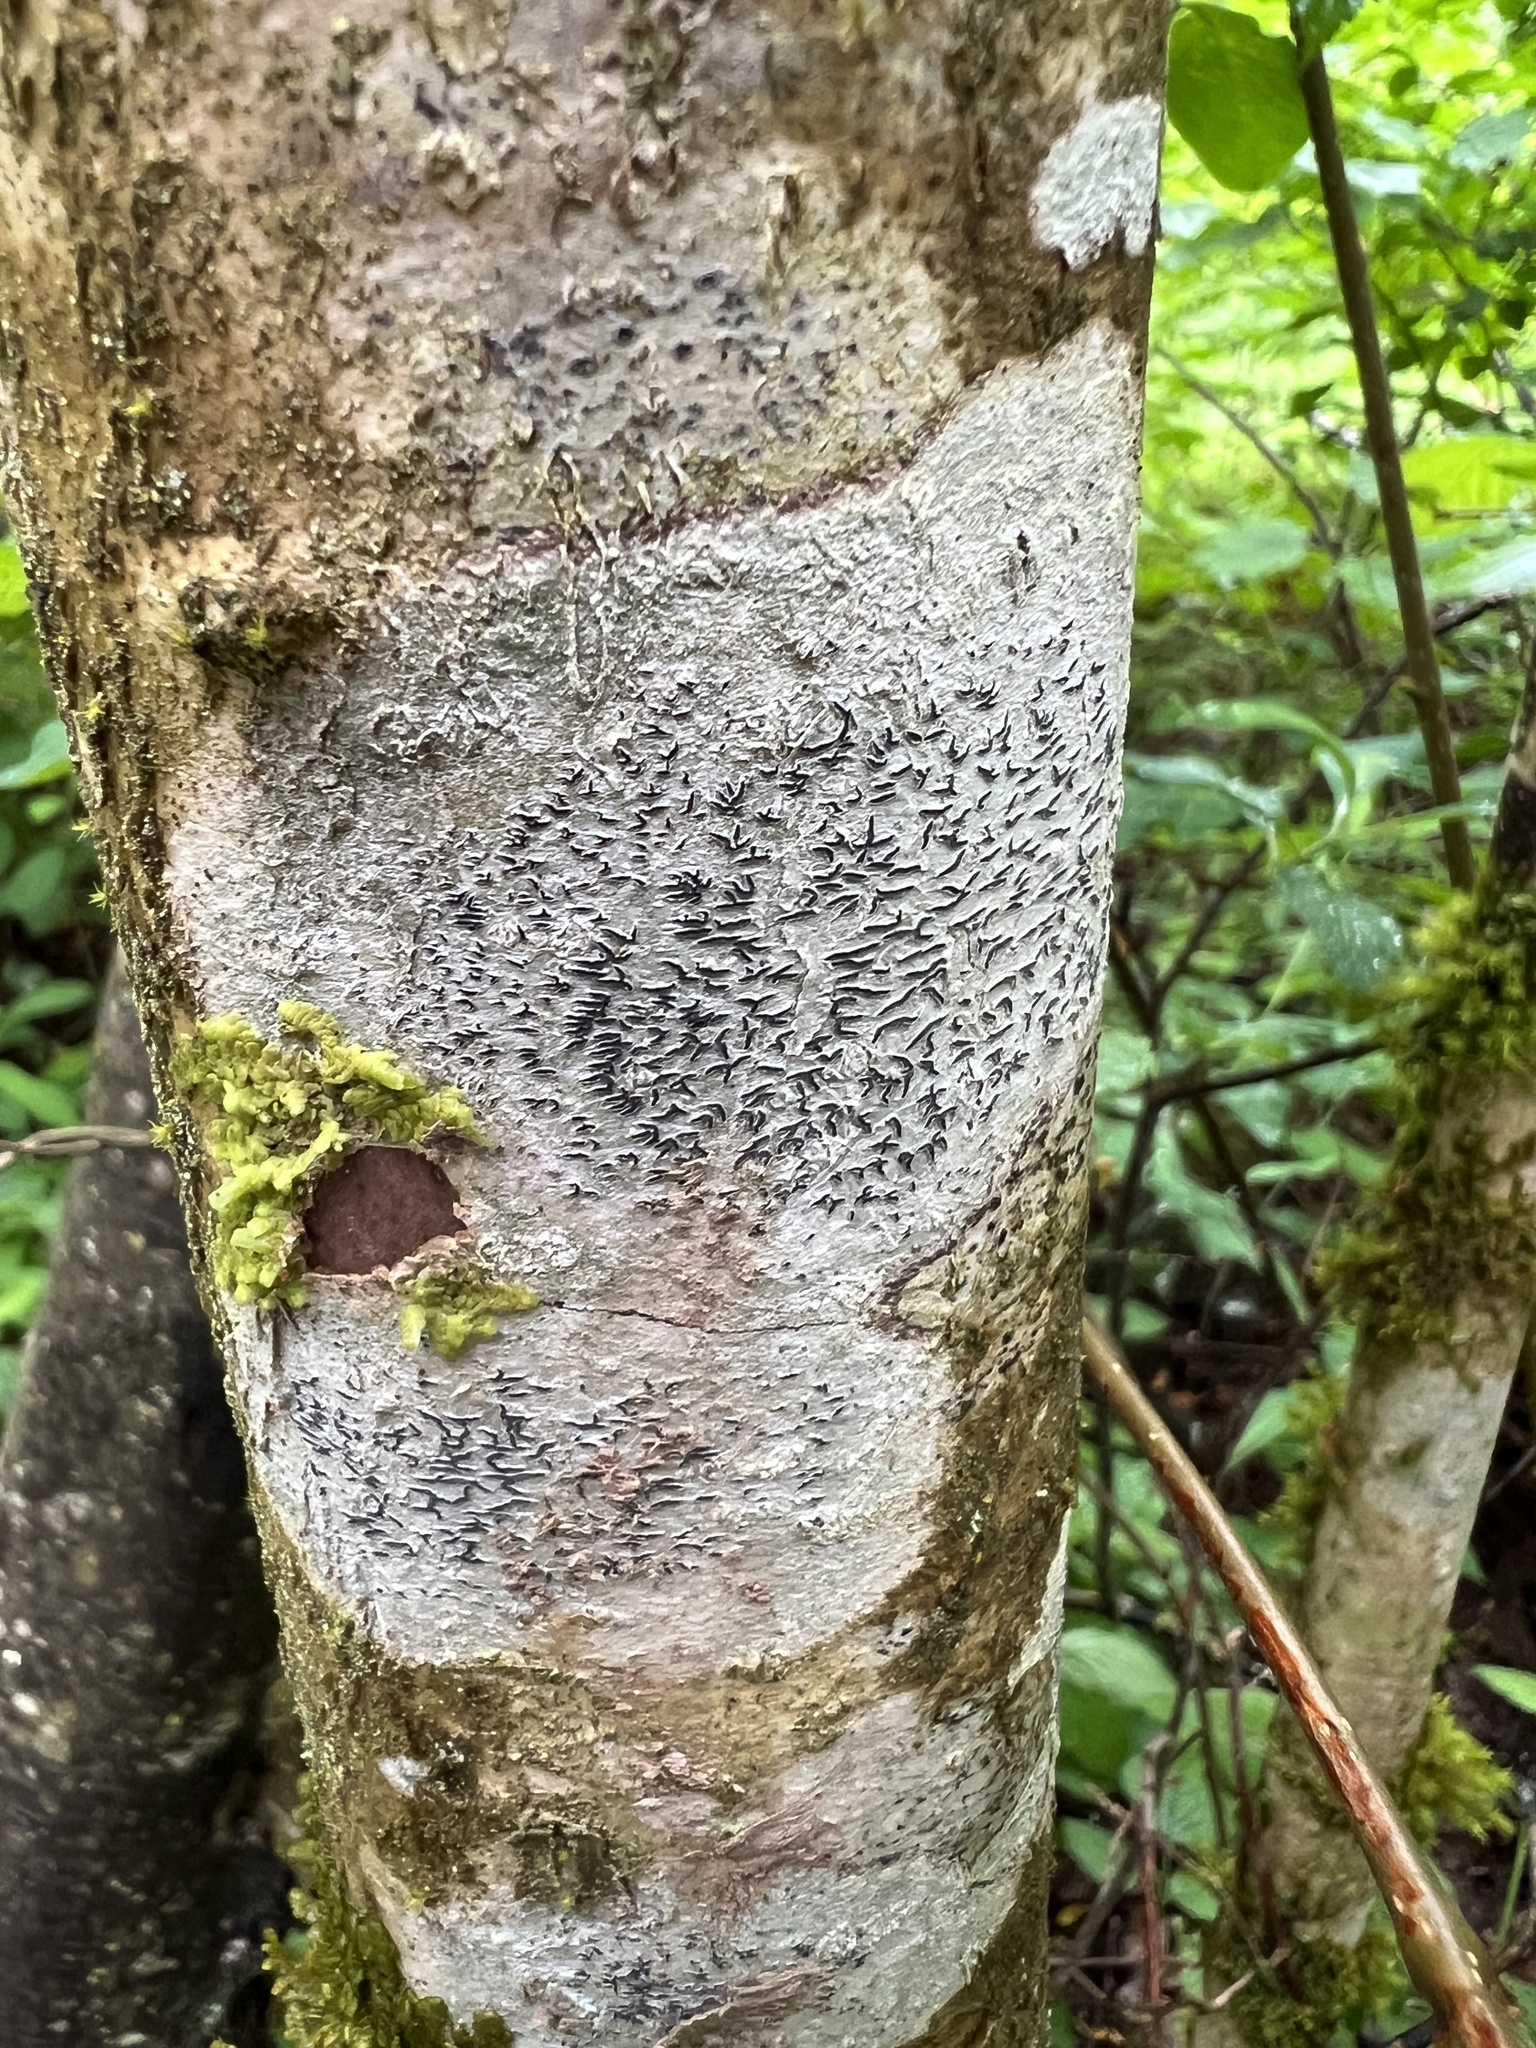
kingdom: Fungi
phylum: Ascomycota
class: Lecanoromycetes
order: Ostropales
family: Graphidaceae
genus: Graphis
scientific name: Graphis scripta
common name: Script lichen
